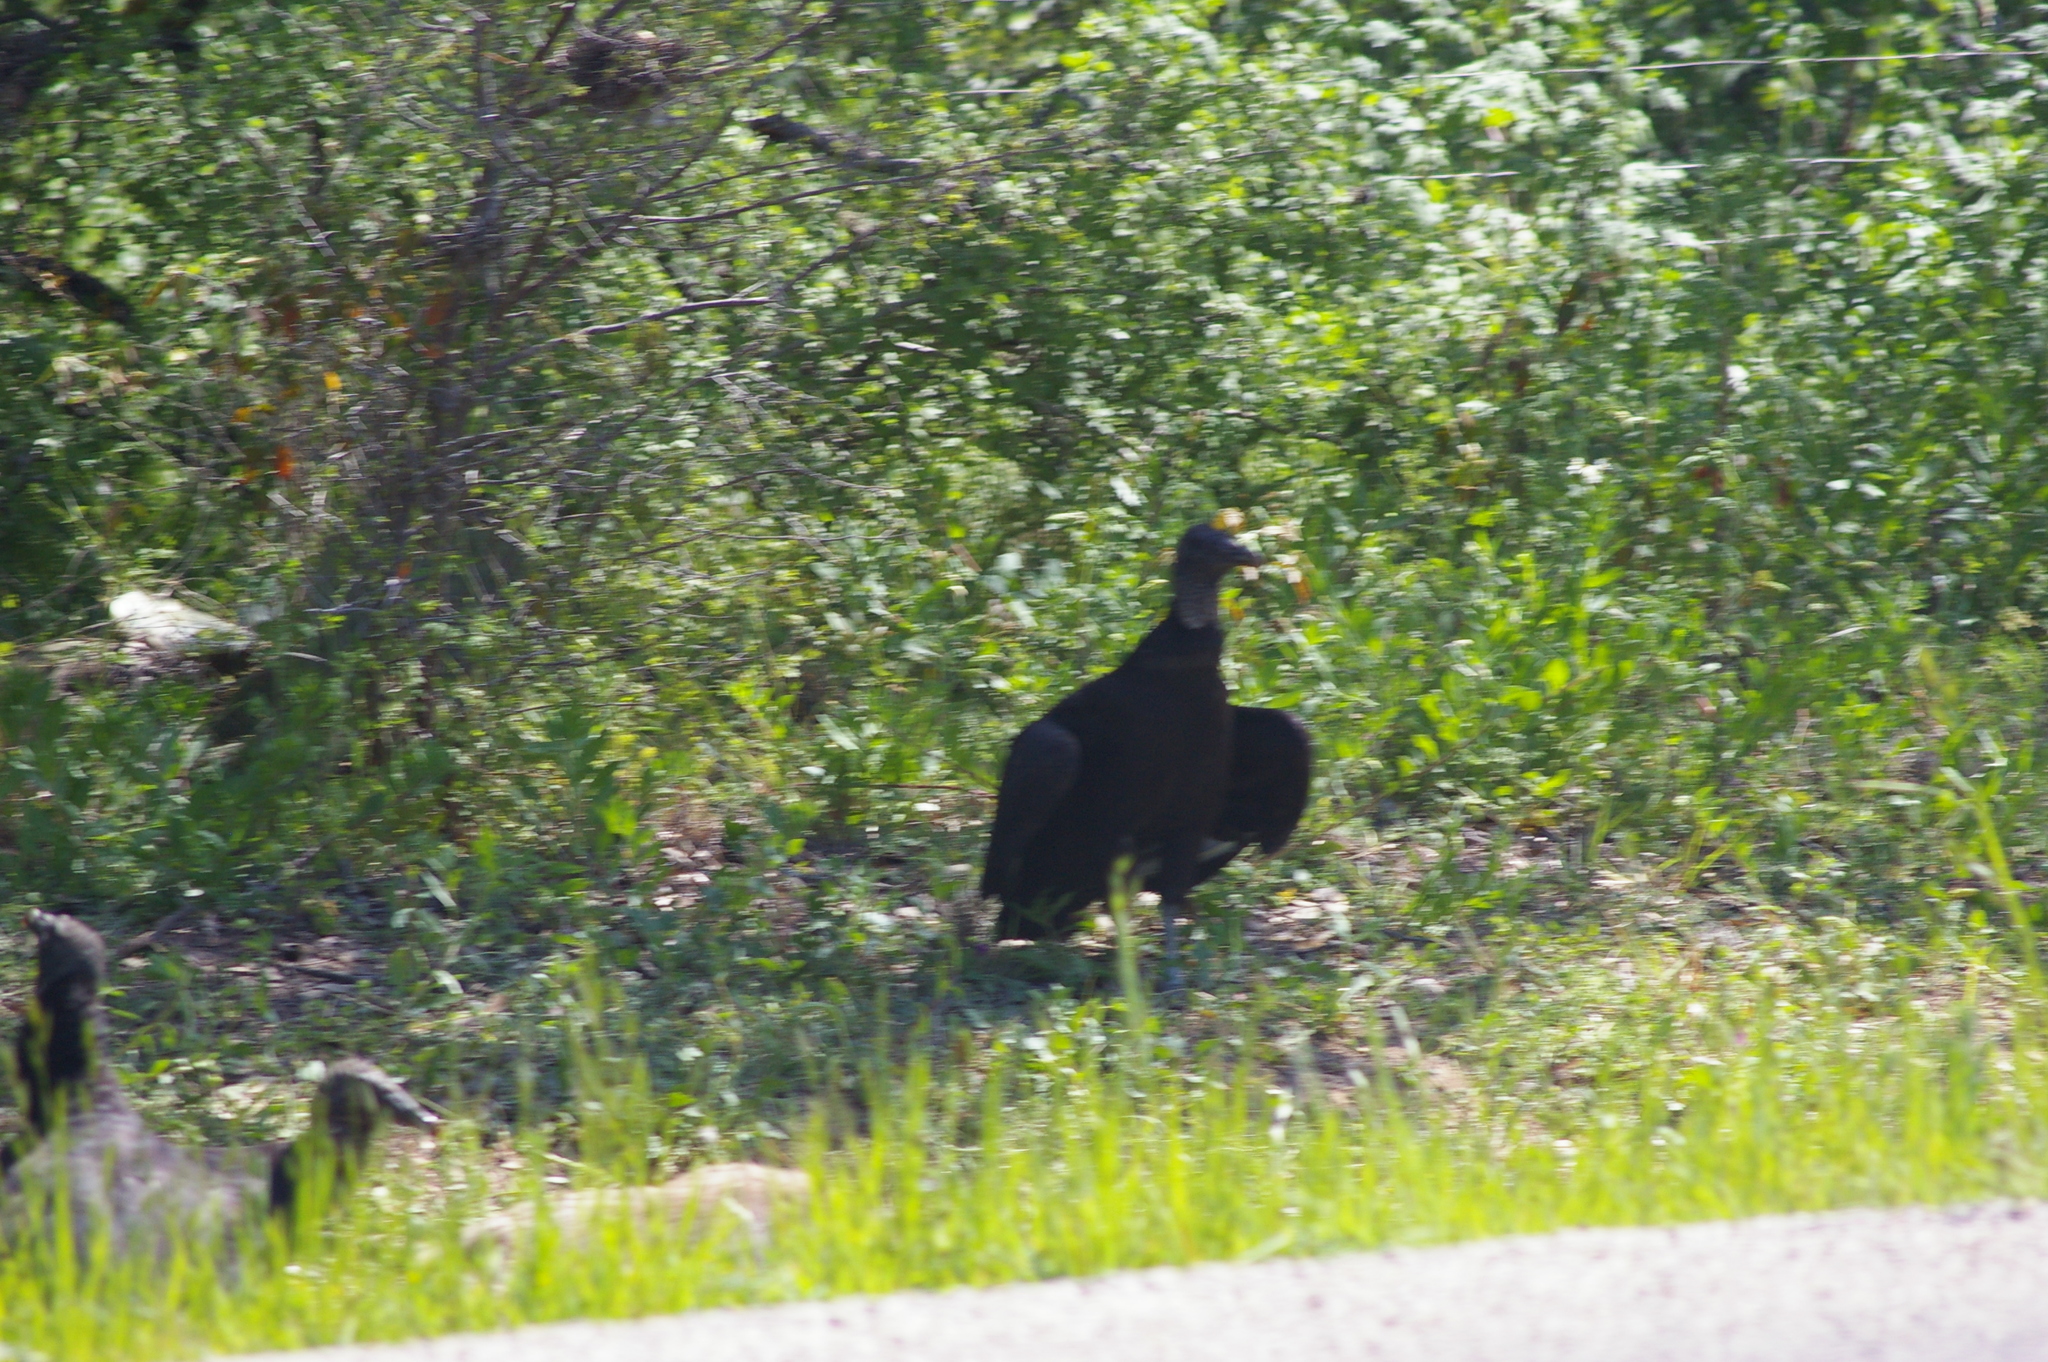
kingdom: Animalia
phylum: Chordata
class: Aves
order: Accipitriformes
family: Cathartidae
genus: Coragyps
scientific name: Coragyps atratus
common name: Black vulture
